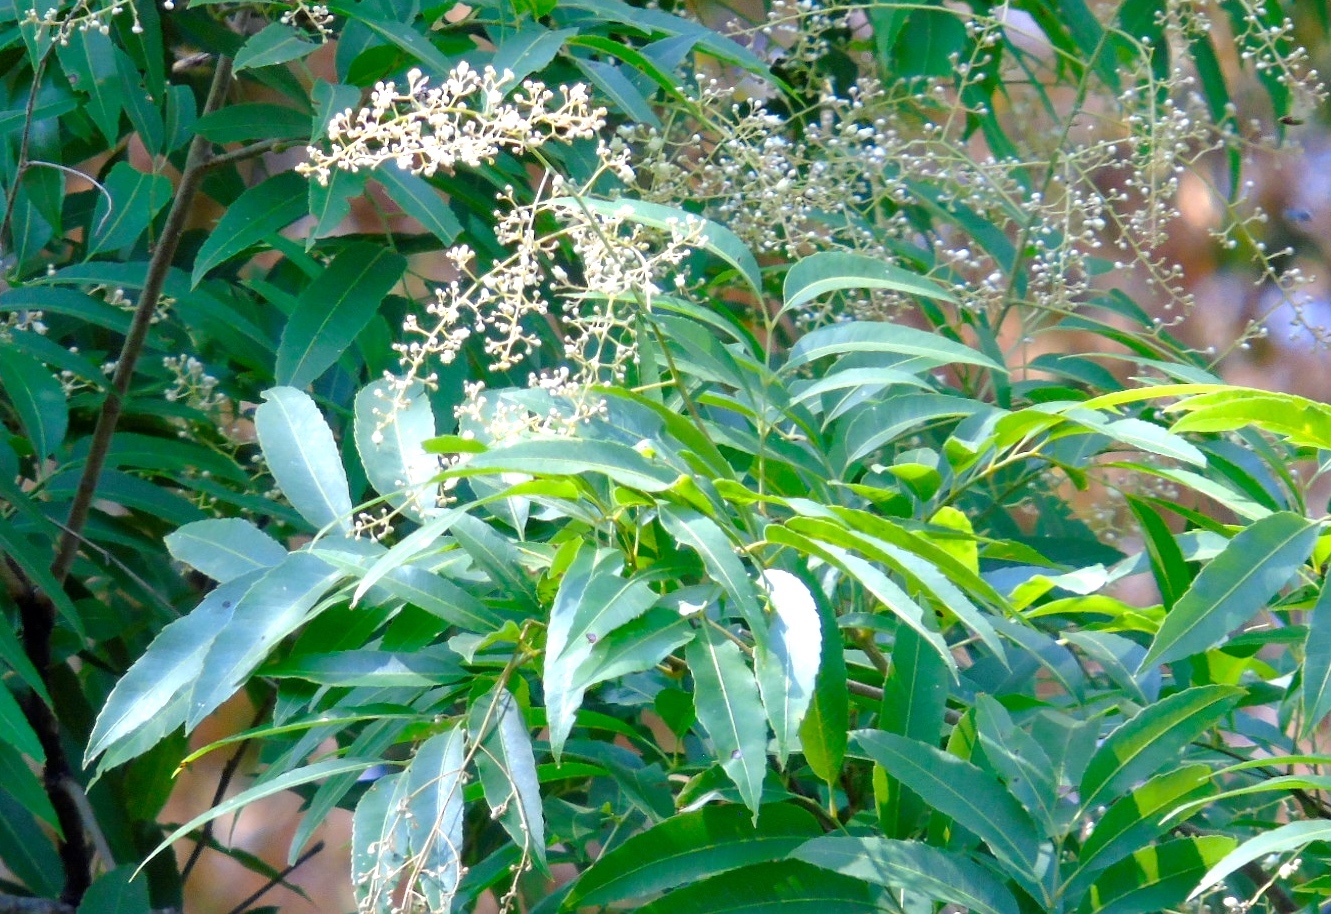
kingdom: Plantae
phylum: Tracheophyta
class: Magnoliopsida
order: Sapindales
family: Sapindaceae
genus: Thouinidium
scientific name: Thouinidium decandrum
